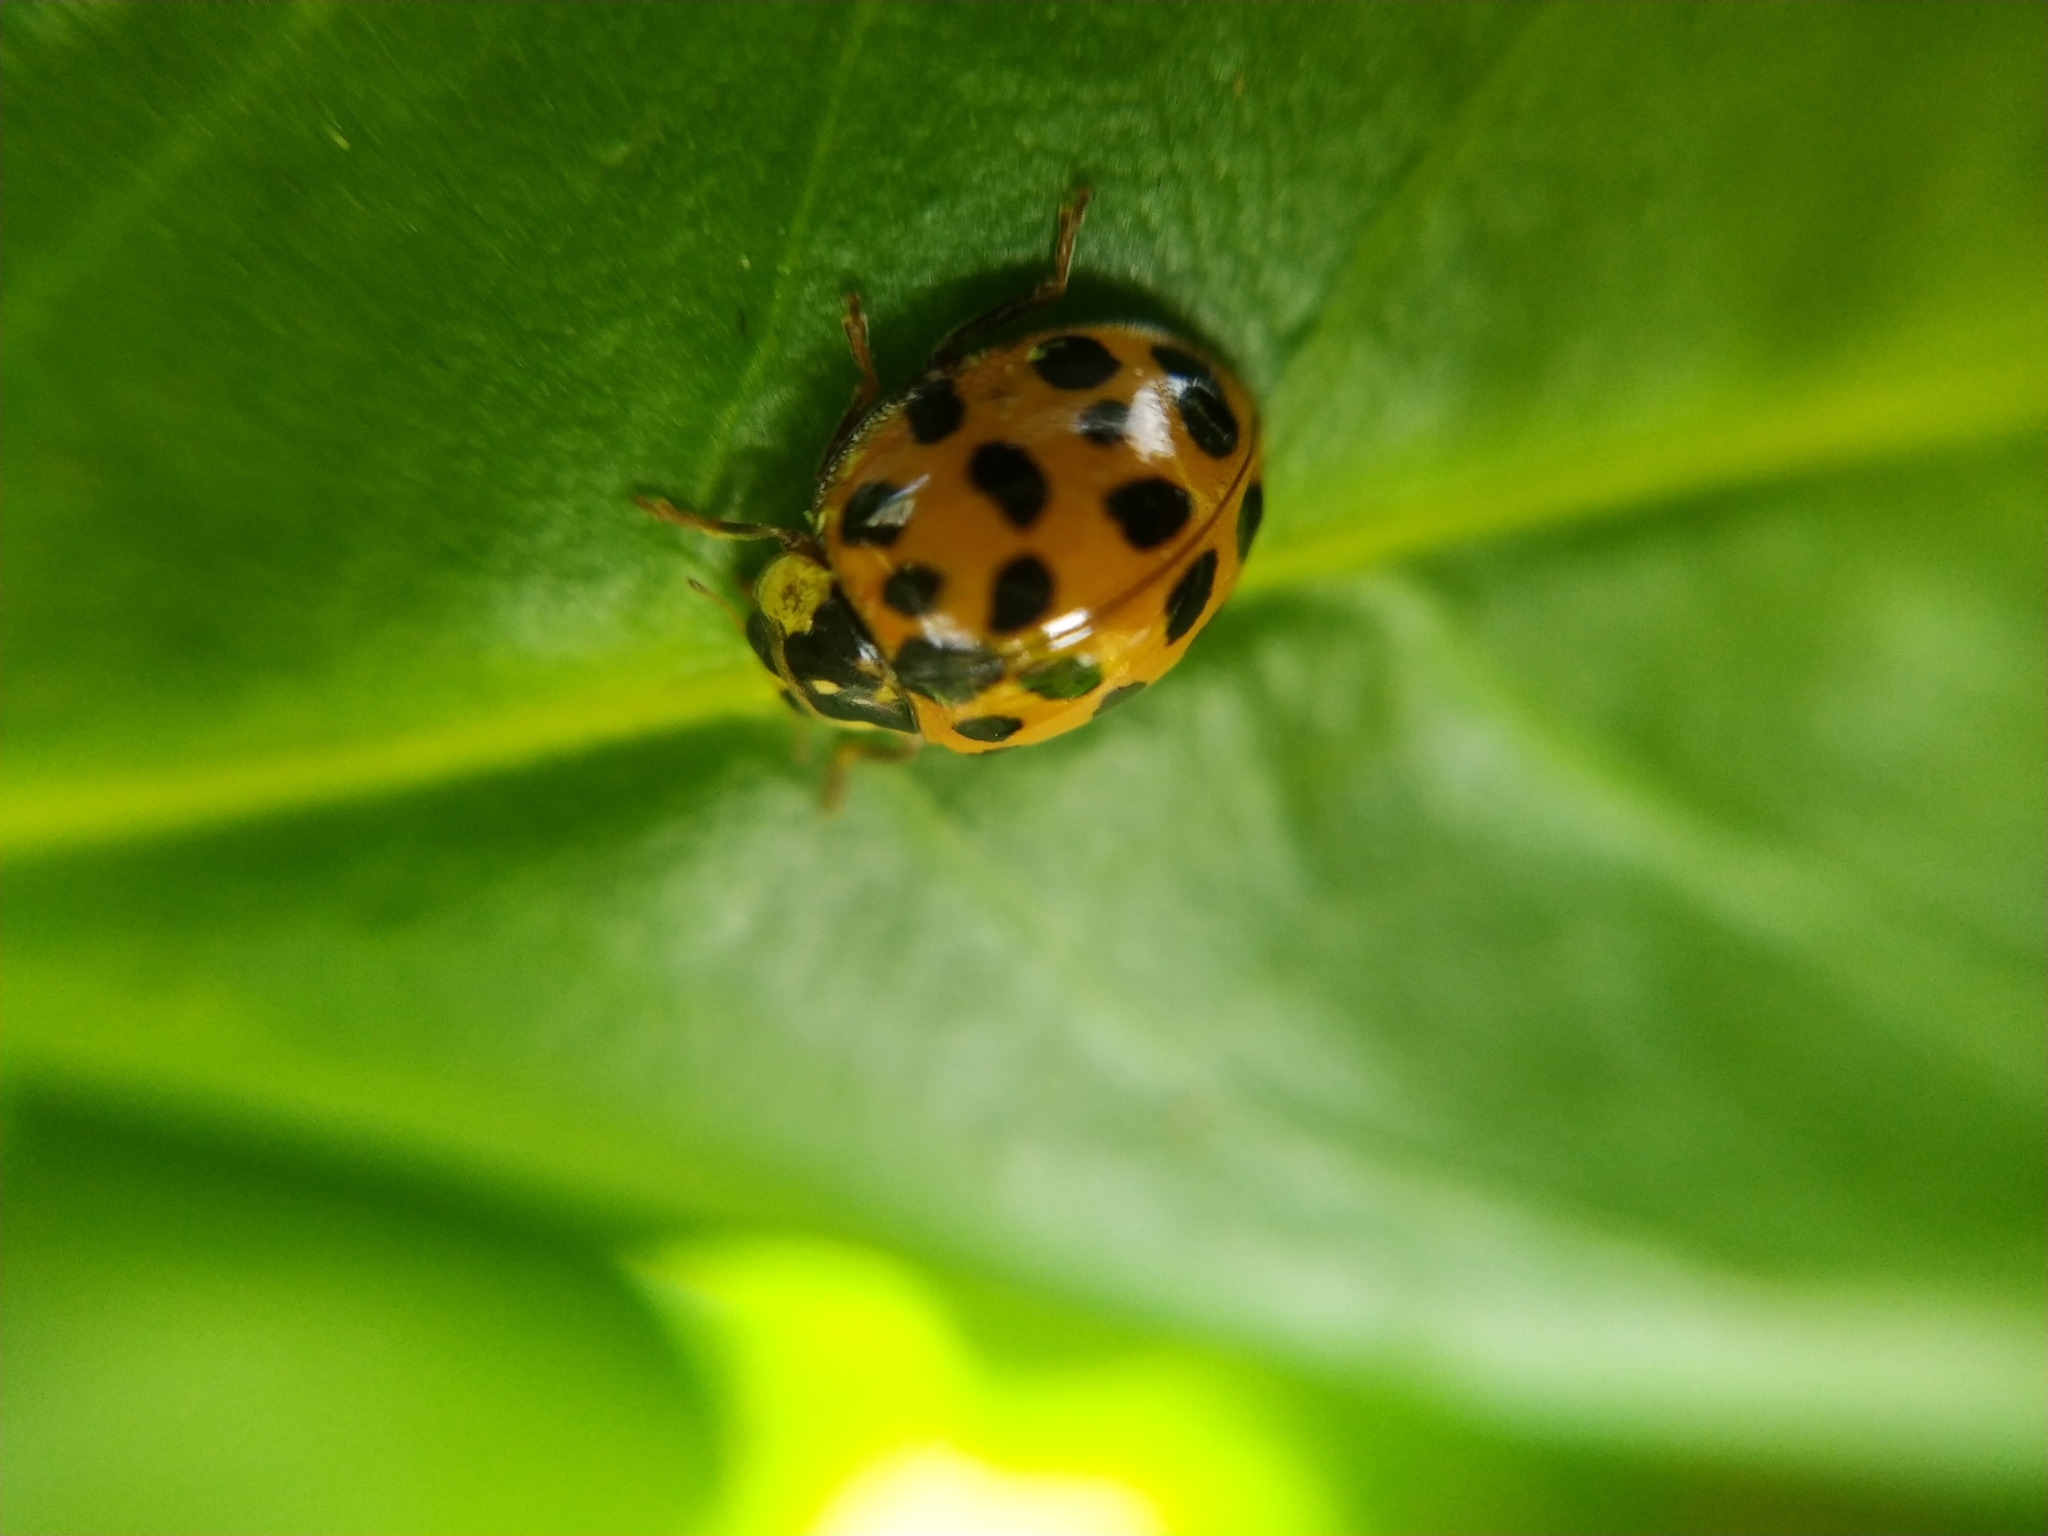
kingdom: Animalia
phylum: Arthropoda
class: Insecta
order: Coleoptera
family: Coccinellidae
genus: Harmonia
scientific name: Harmonia axyridis
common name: Harlequin ladybird
